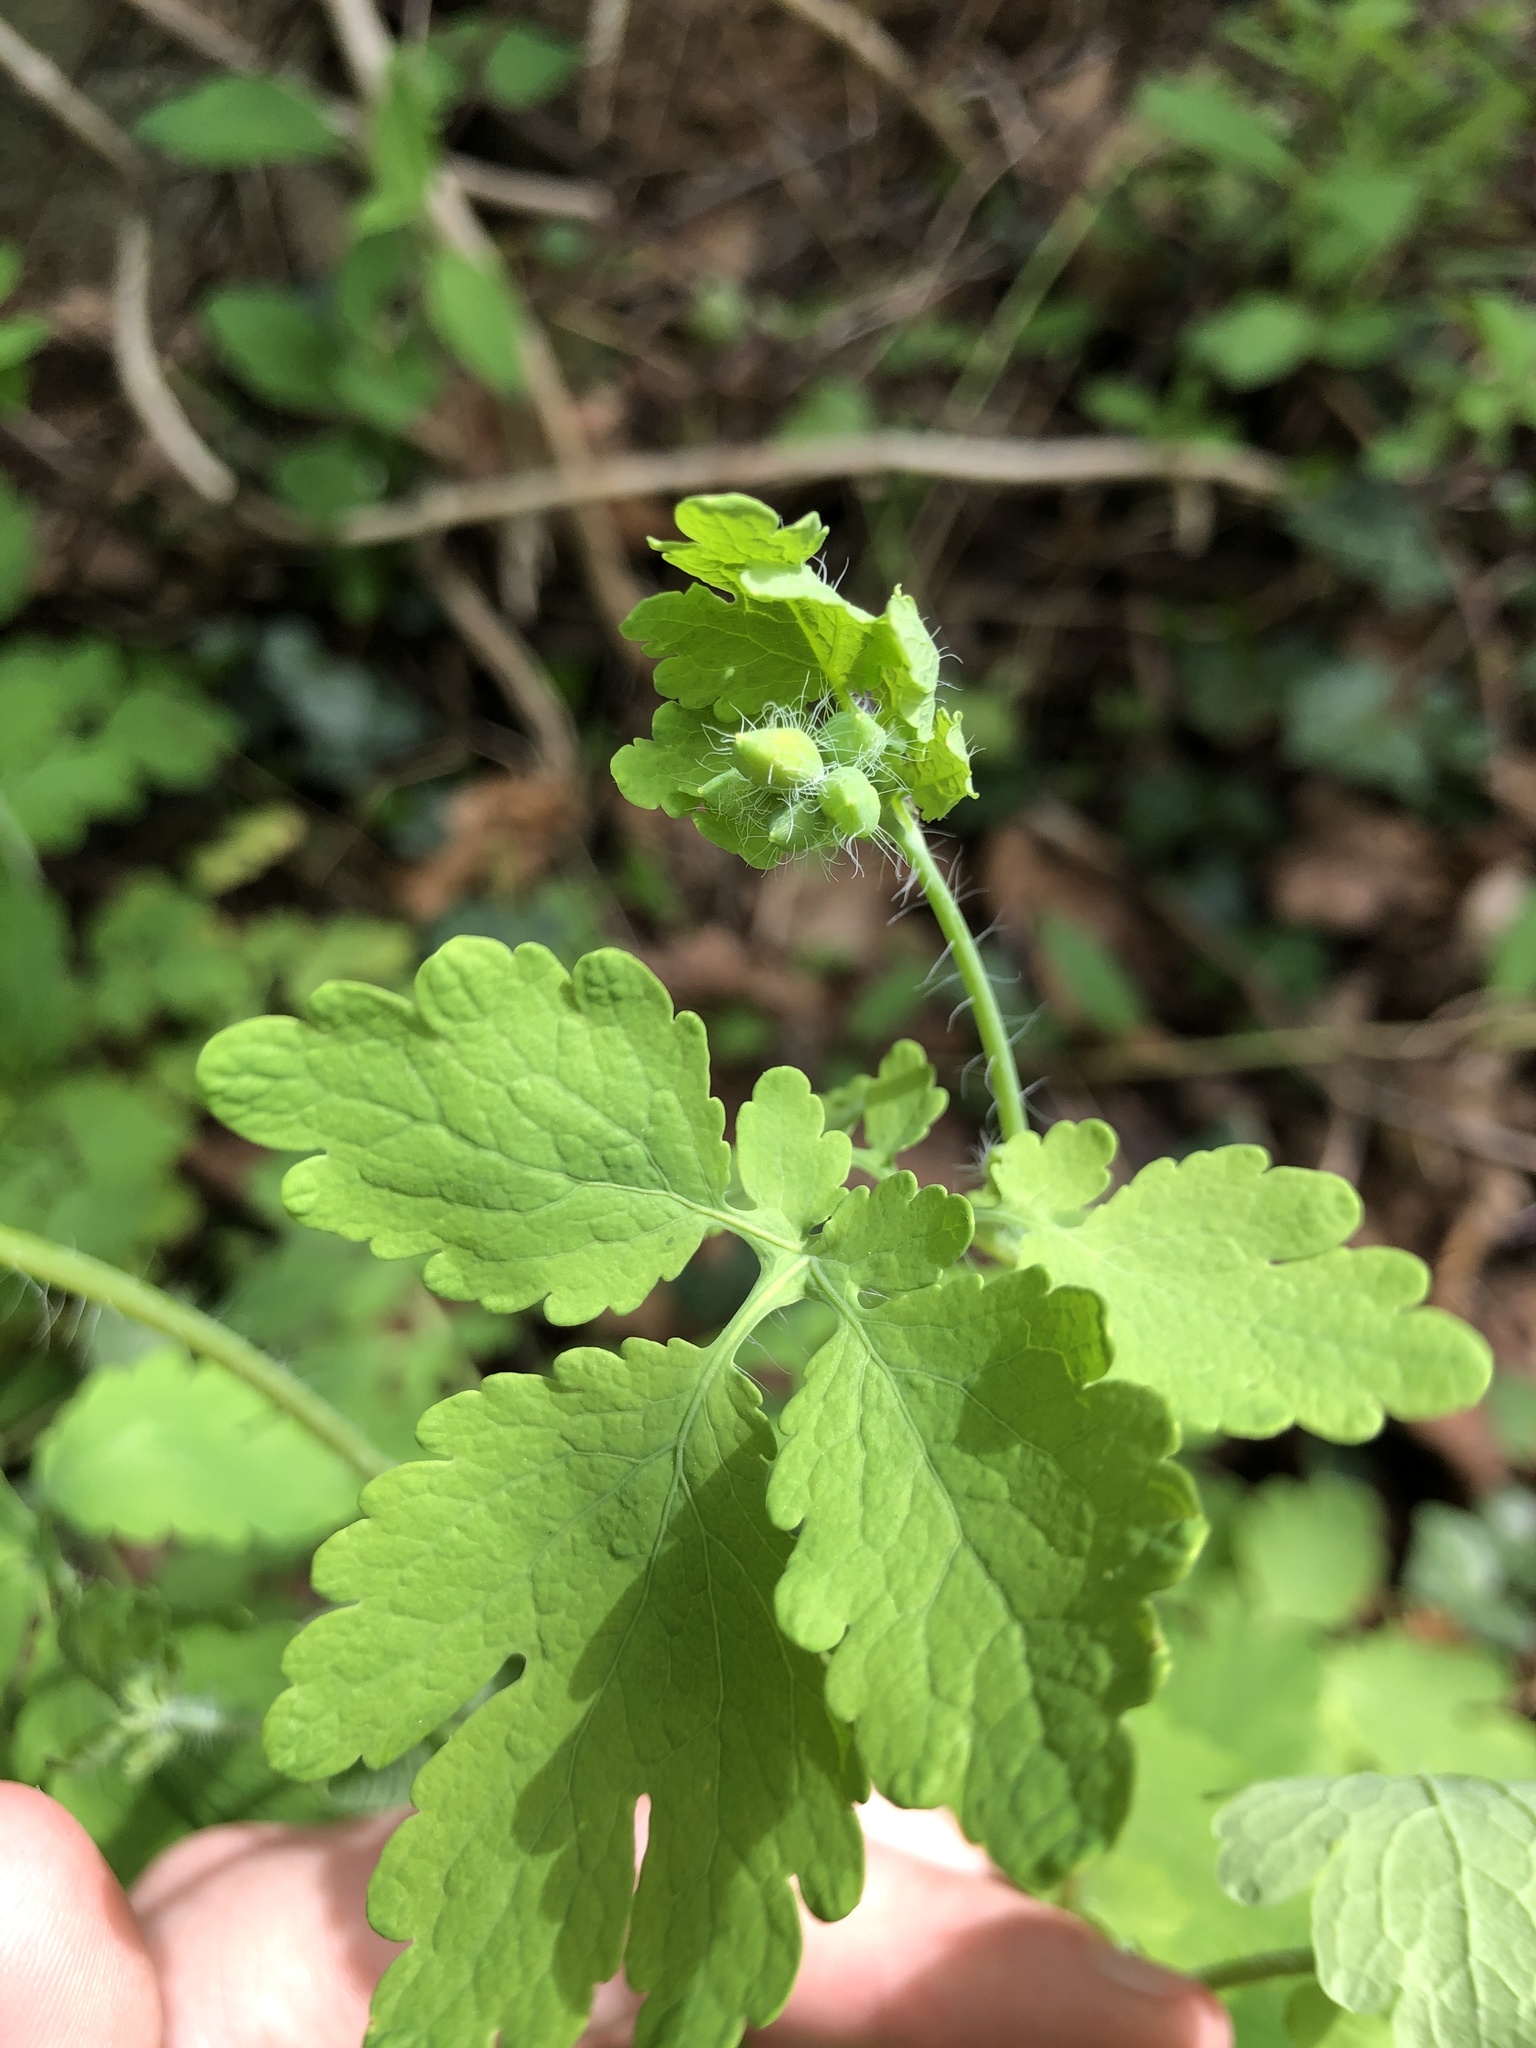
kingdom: Plantae
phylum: Tracheophyta
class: Magnoliopsida
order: Ranunculales
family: Papaveraceae
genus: Chelidonium
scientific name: Chelidonium majus
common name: Greater celandine
